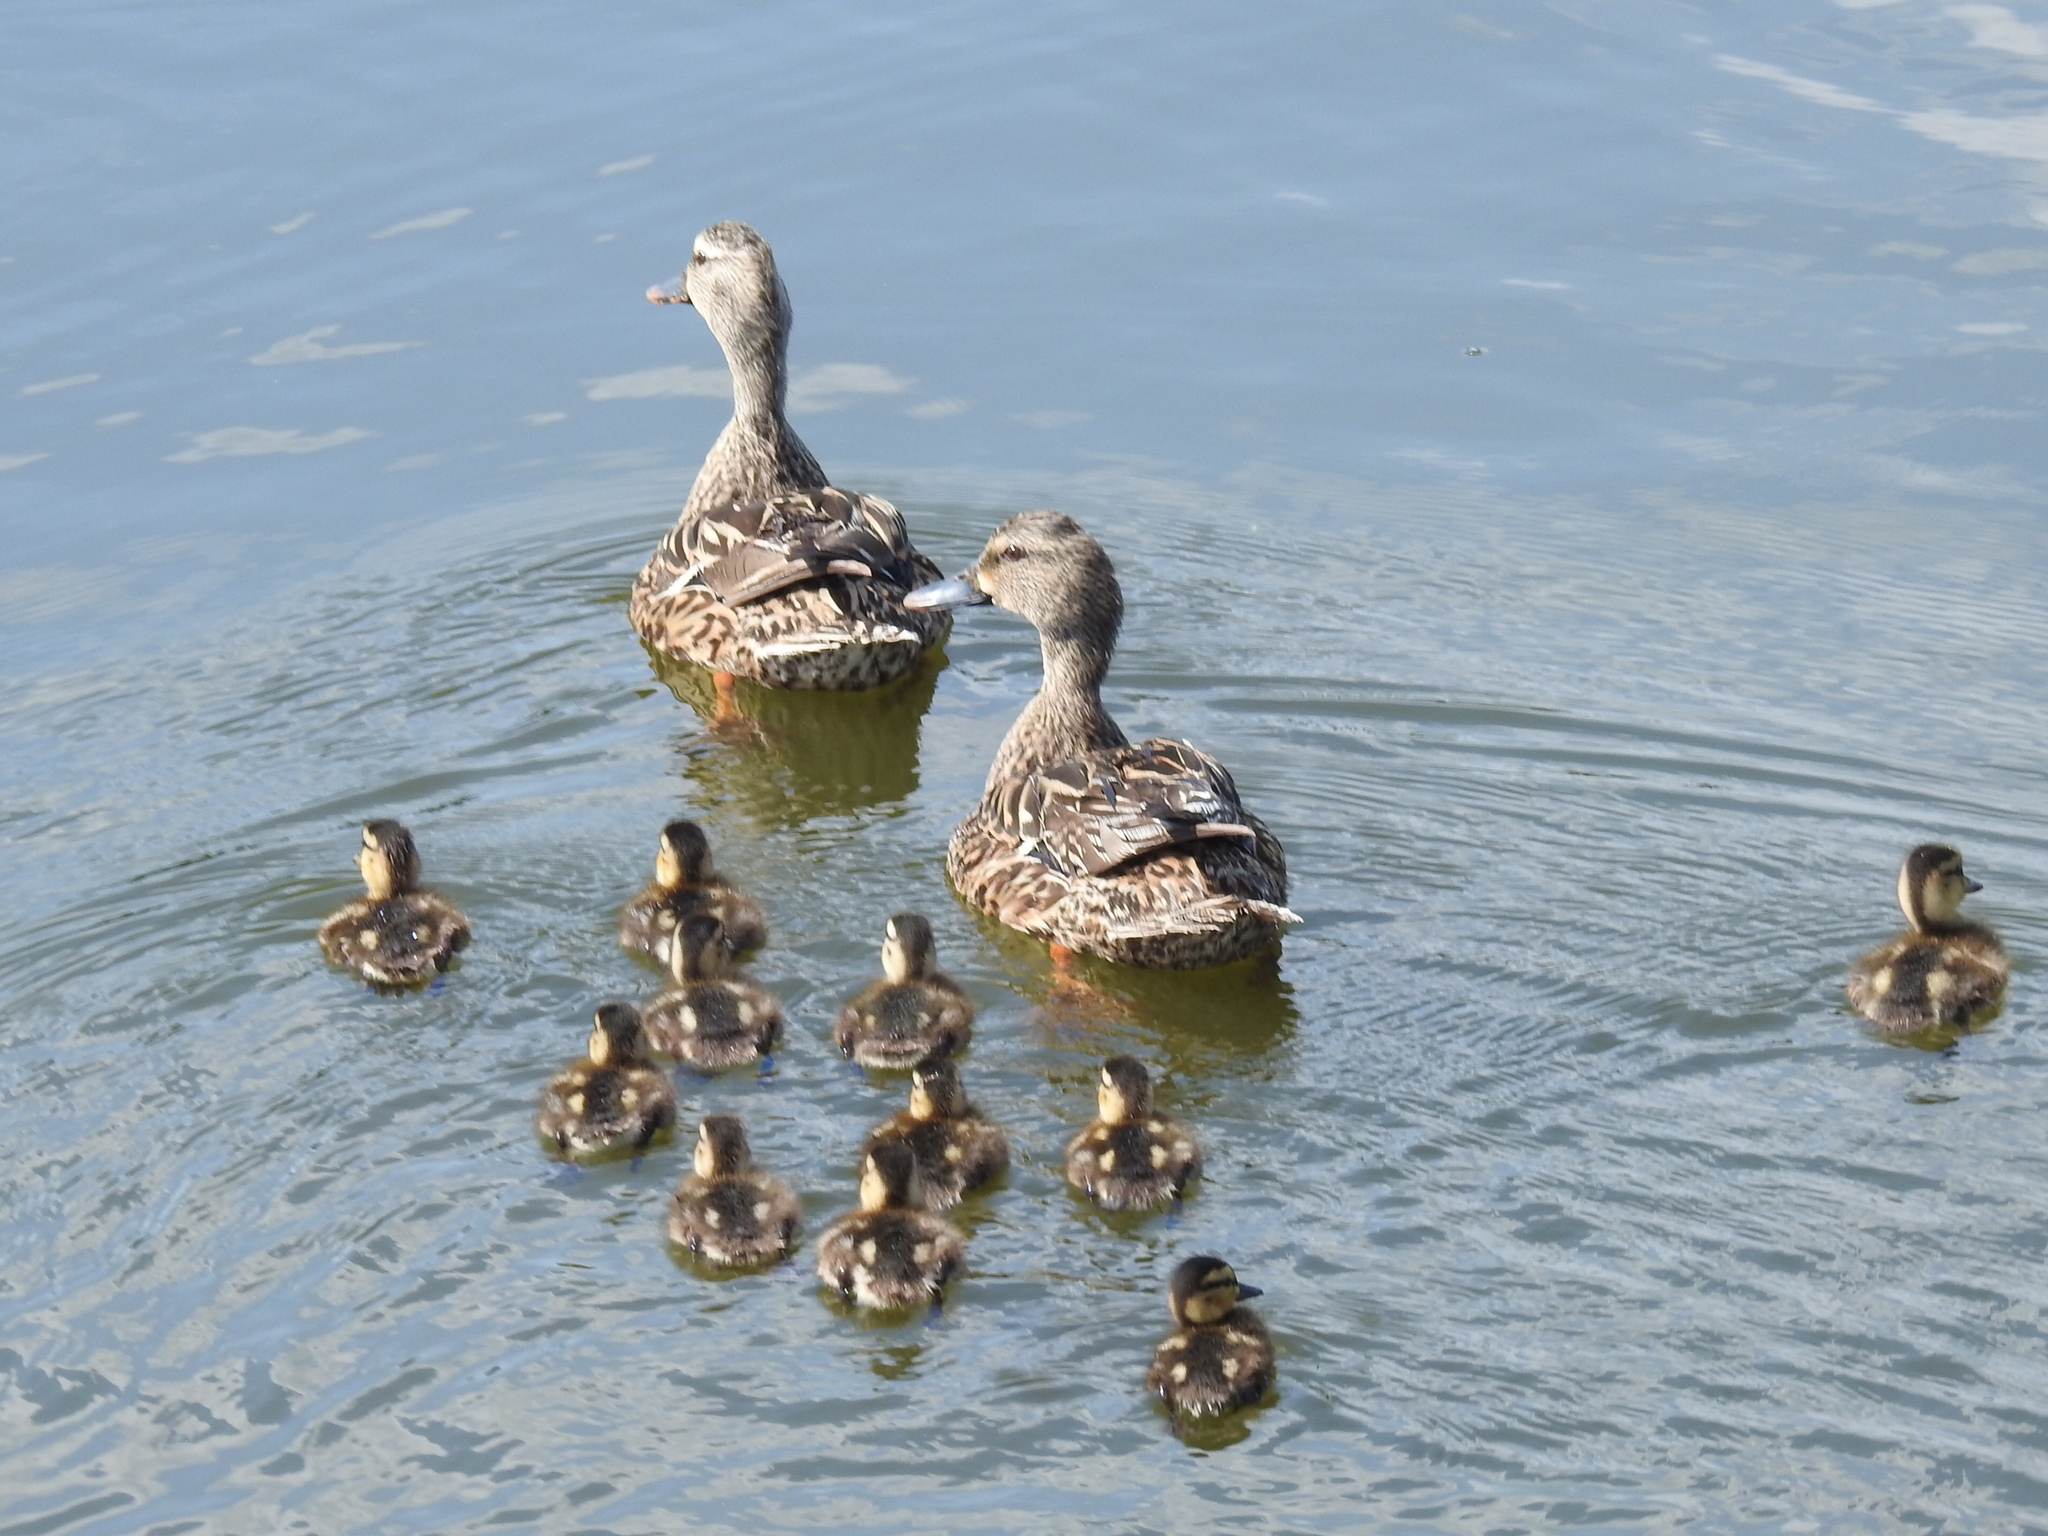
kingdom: Animalia
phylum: Chordata
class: Aves
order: Anseriformes
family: Anatidae
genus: Anas
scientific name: Anas platyrhynchos
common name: Mallard
